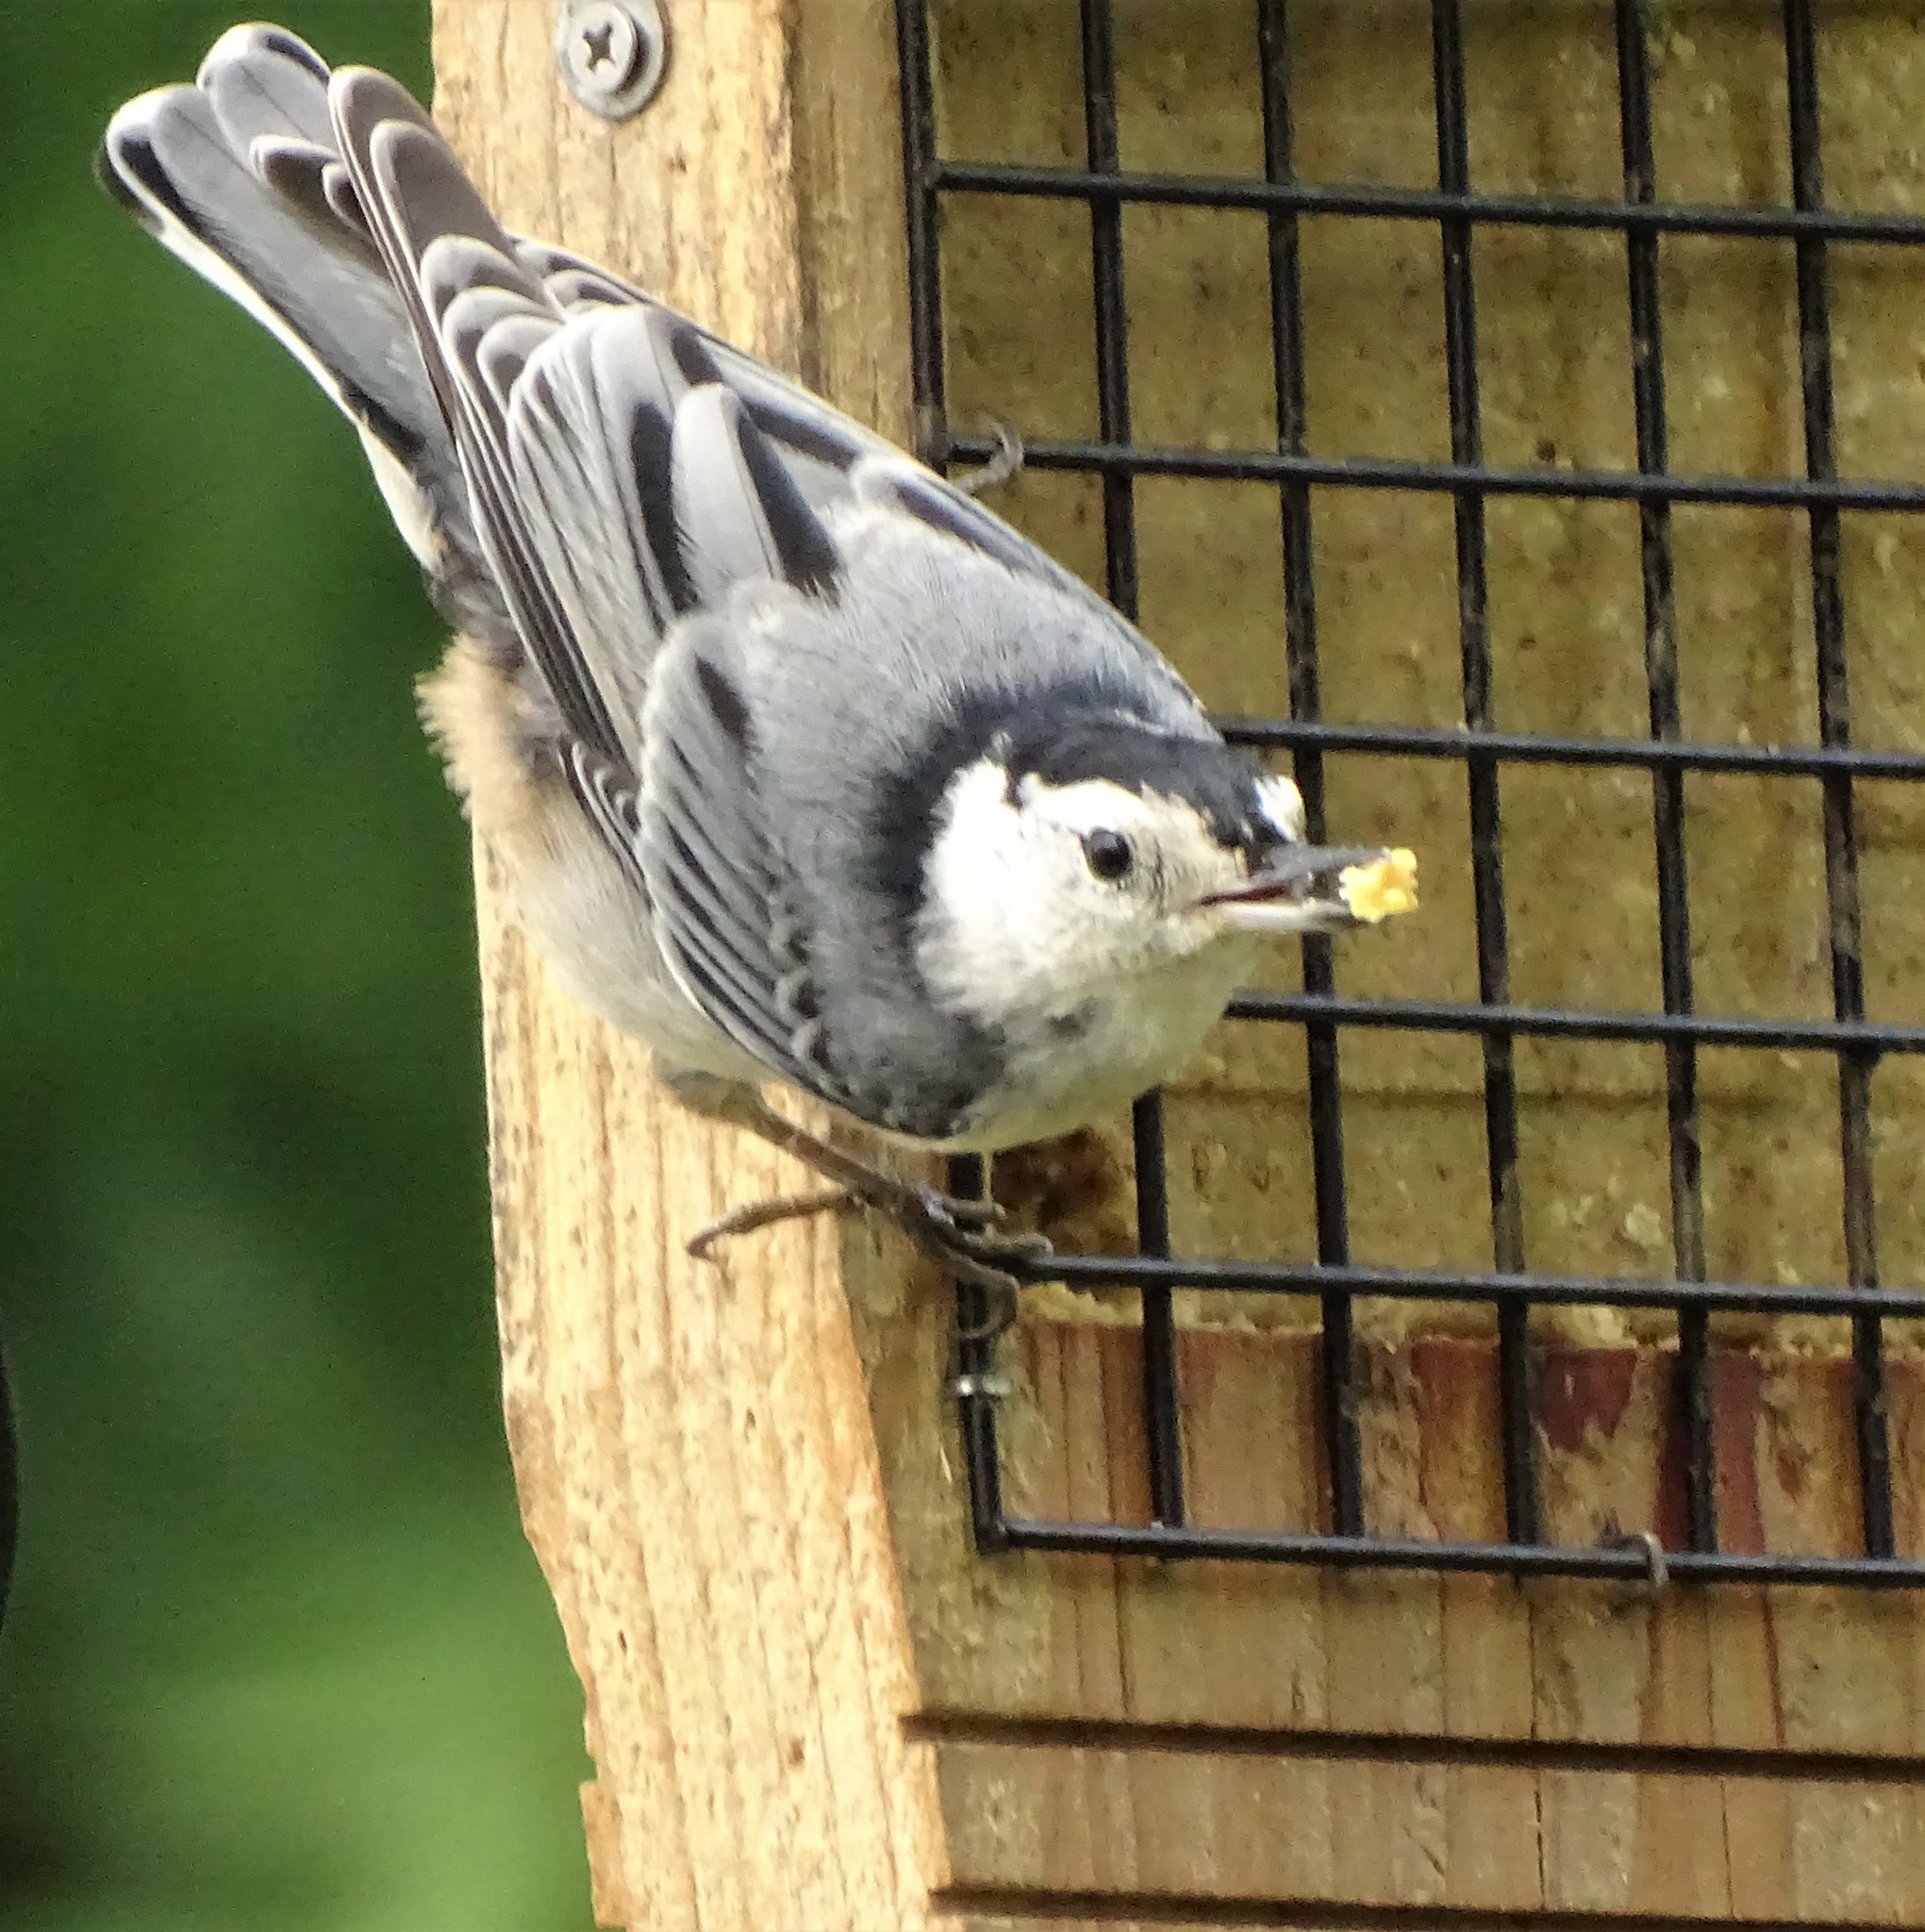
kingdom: Animalia
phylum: Chordata
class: Aves
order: Passeriformes
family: Sittidae
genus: Sitta
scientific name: Sitta carolinensis
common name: White-breasted nuthatch
